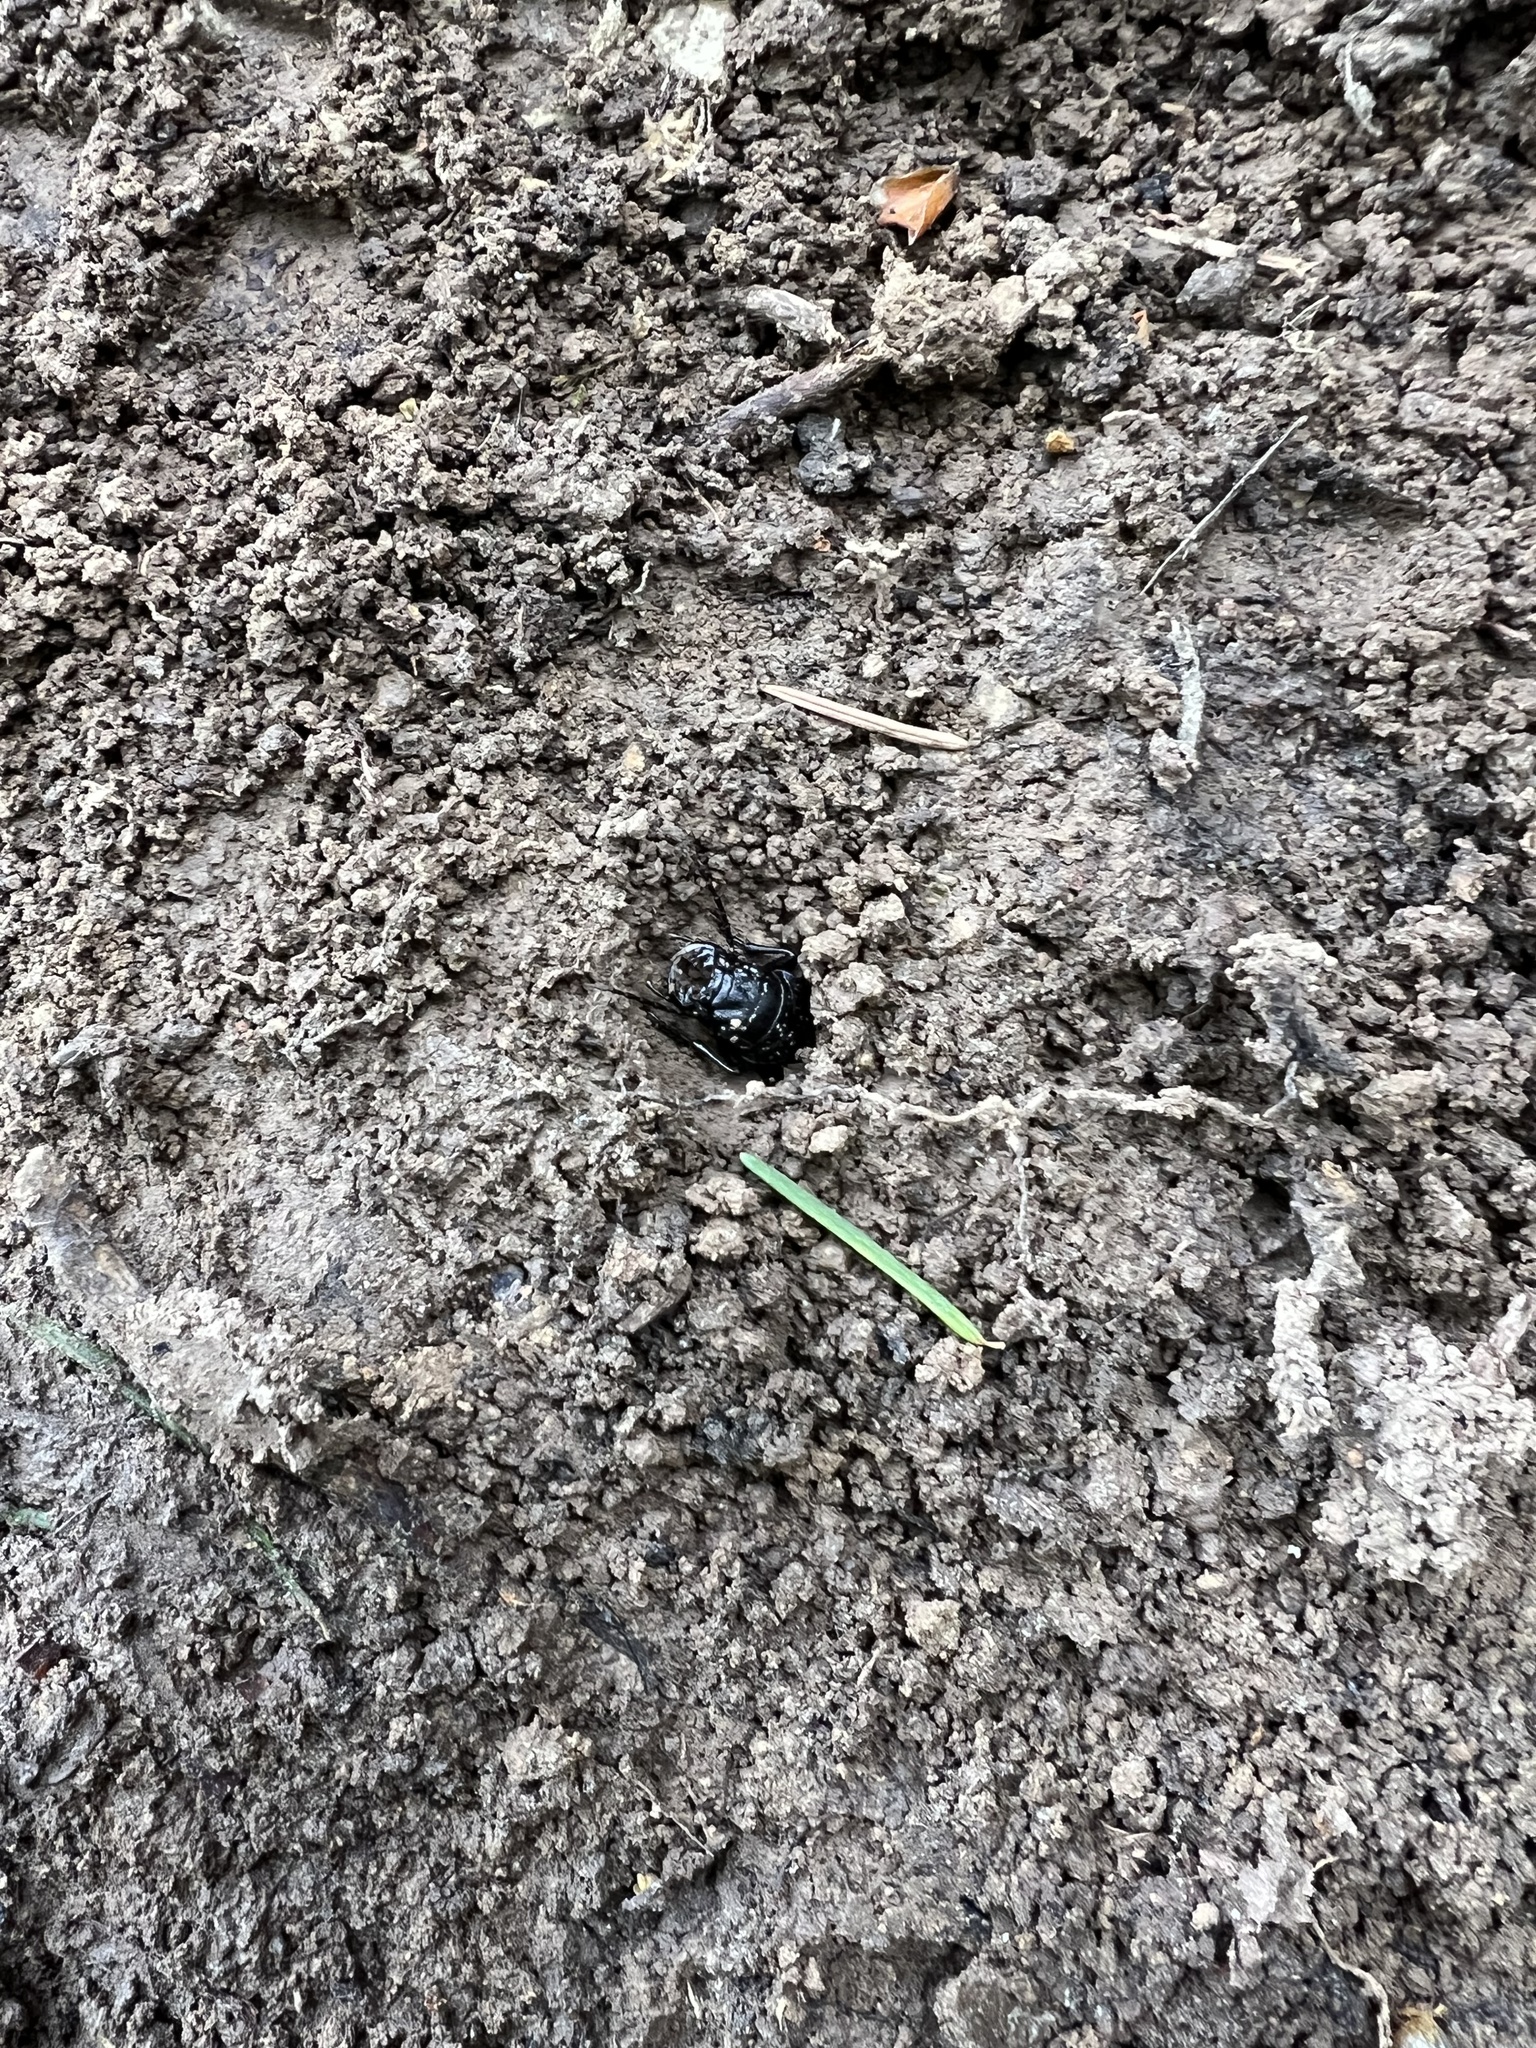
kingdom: Animalia
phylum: Arthropoda
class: Insecta
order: Coleoptera
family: Carabidae
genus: Omus
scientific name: Omus dejeanii
